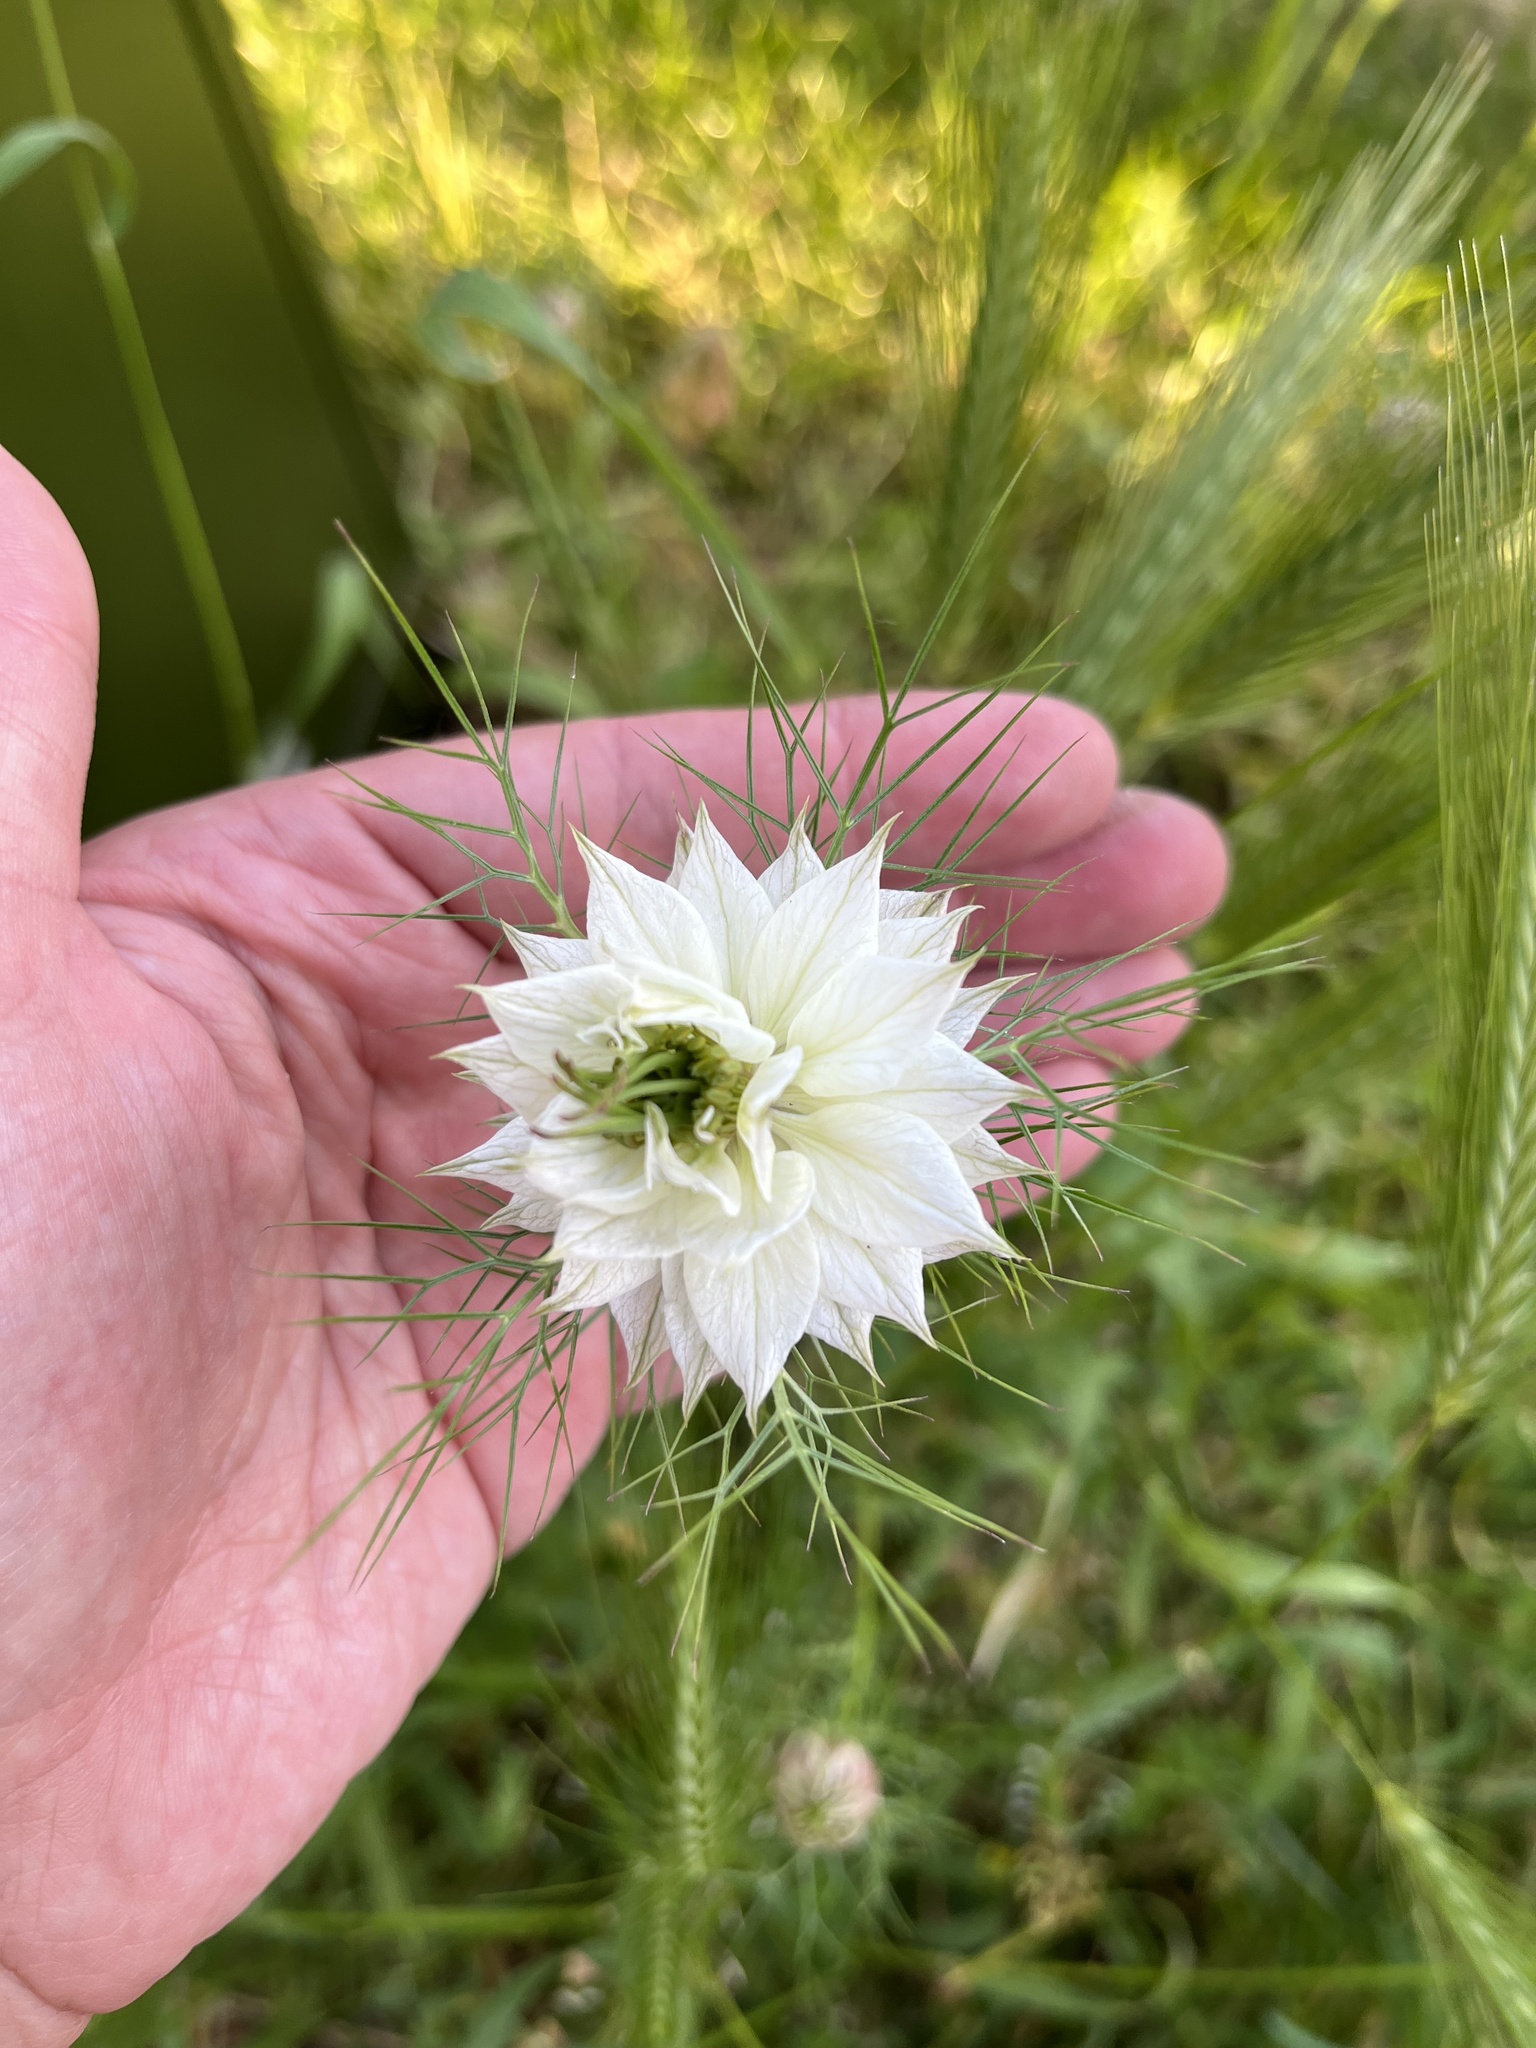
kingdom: Plantae
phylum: Tracheophyta
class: Magnoliopsida
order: Ranunculales
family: Ranunculaceae
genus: Nigella
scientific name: Nigella damascena
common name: Love-in-a-mist
